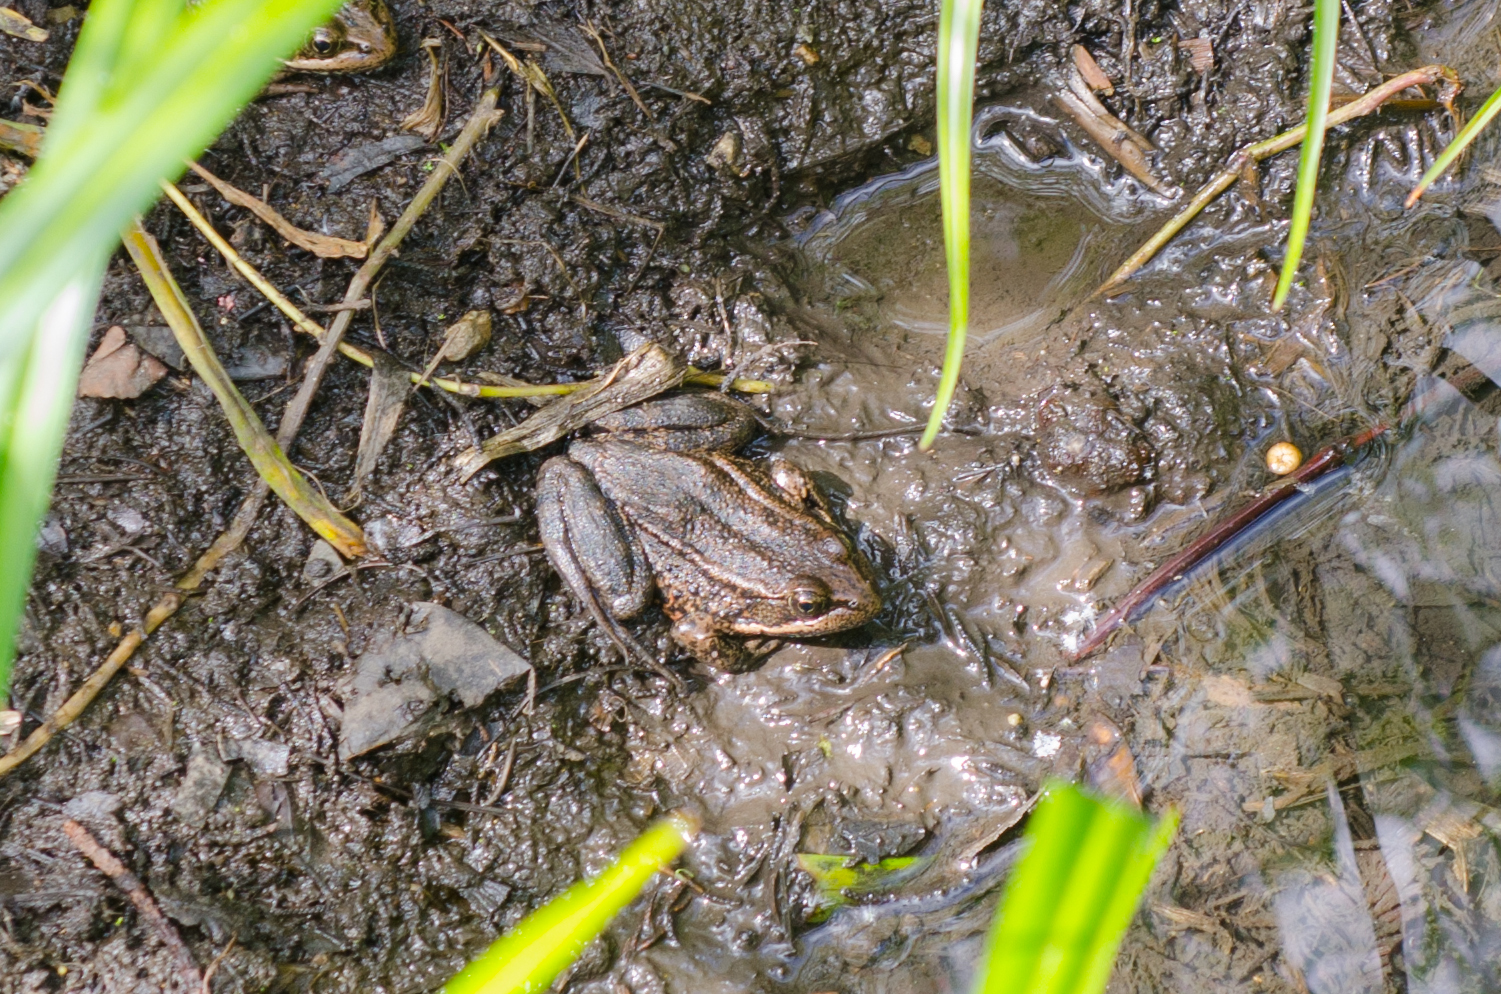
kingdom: Animalia
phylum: Chordata
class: Amphibia
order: Anura
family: Ranidae
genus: Rana
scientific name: Rana draytonii
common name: California red-legged frog
